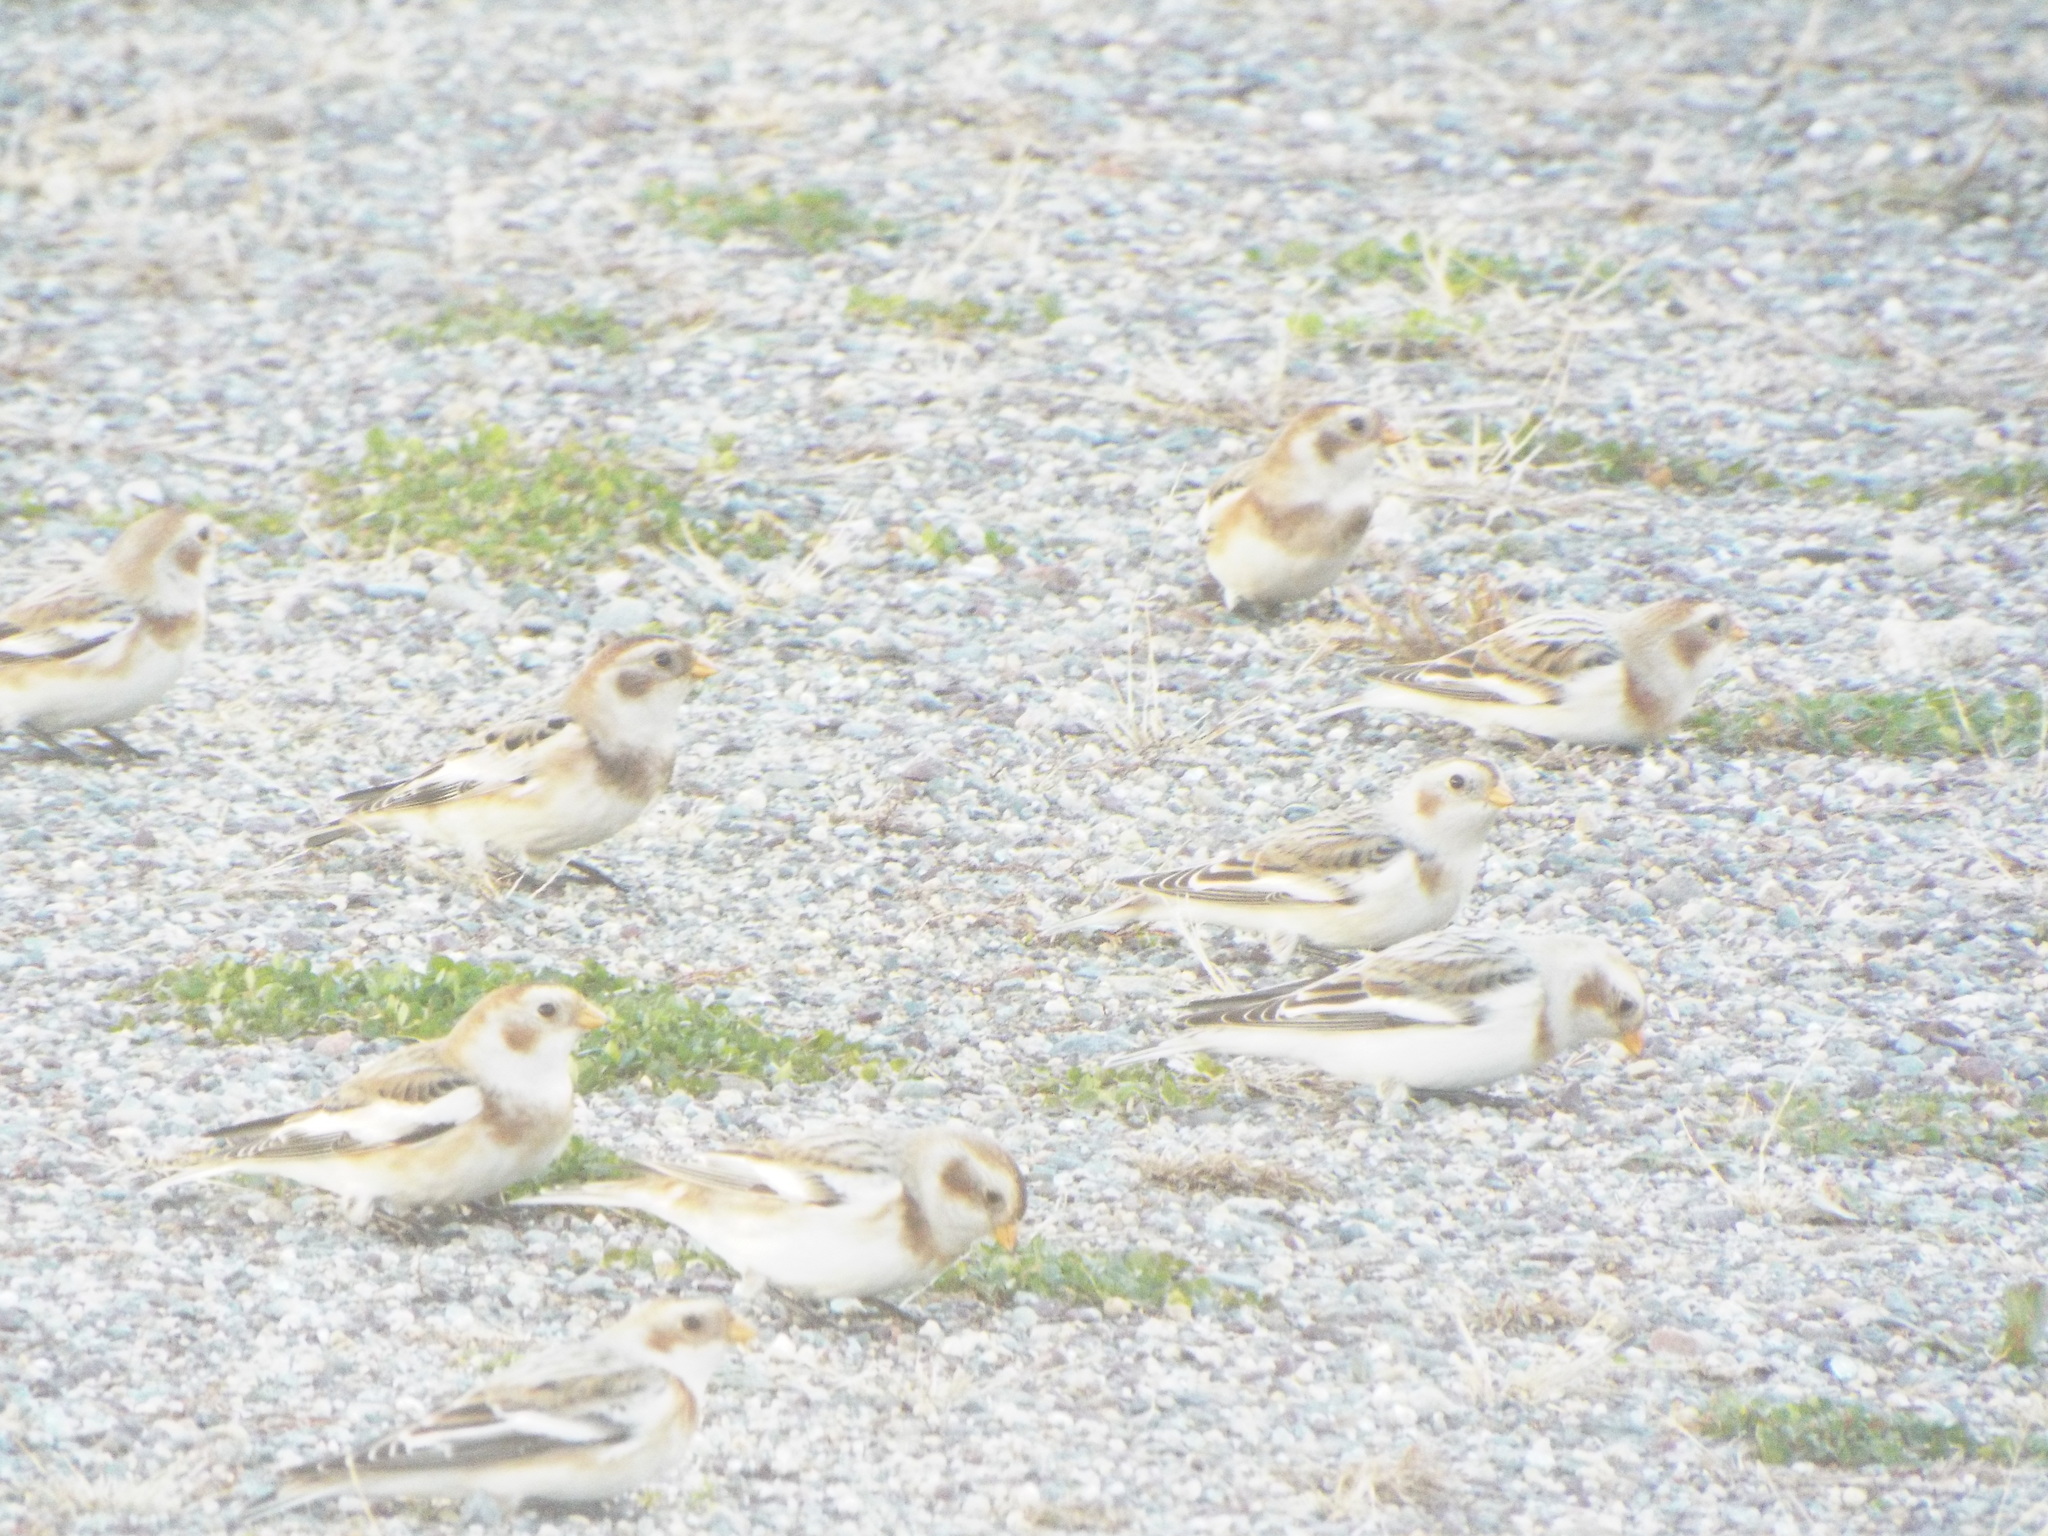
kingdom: Animalia
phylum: Chordata
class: Aves
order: Passeriformes
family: Calcariidae
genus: Plectrophenax
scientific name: Plectrophenax nivalis
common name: Snow bunting
